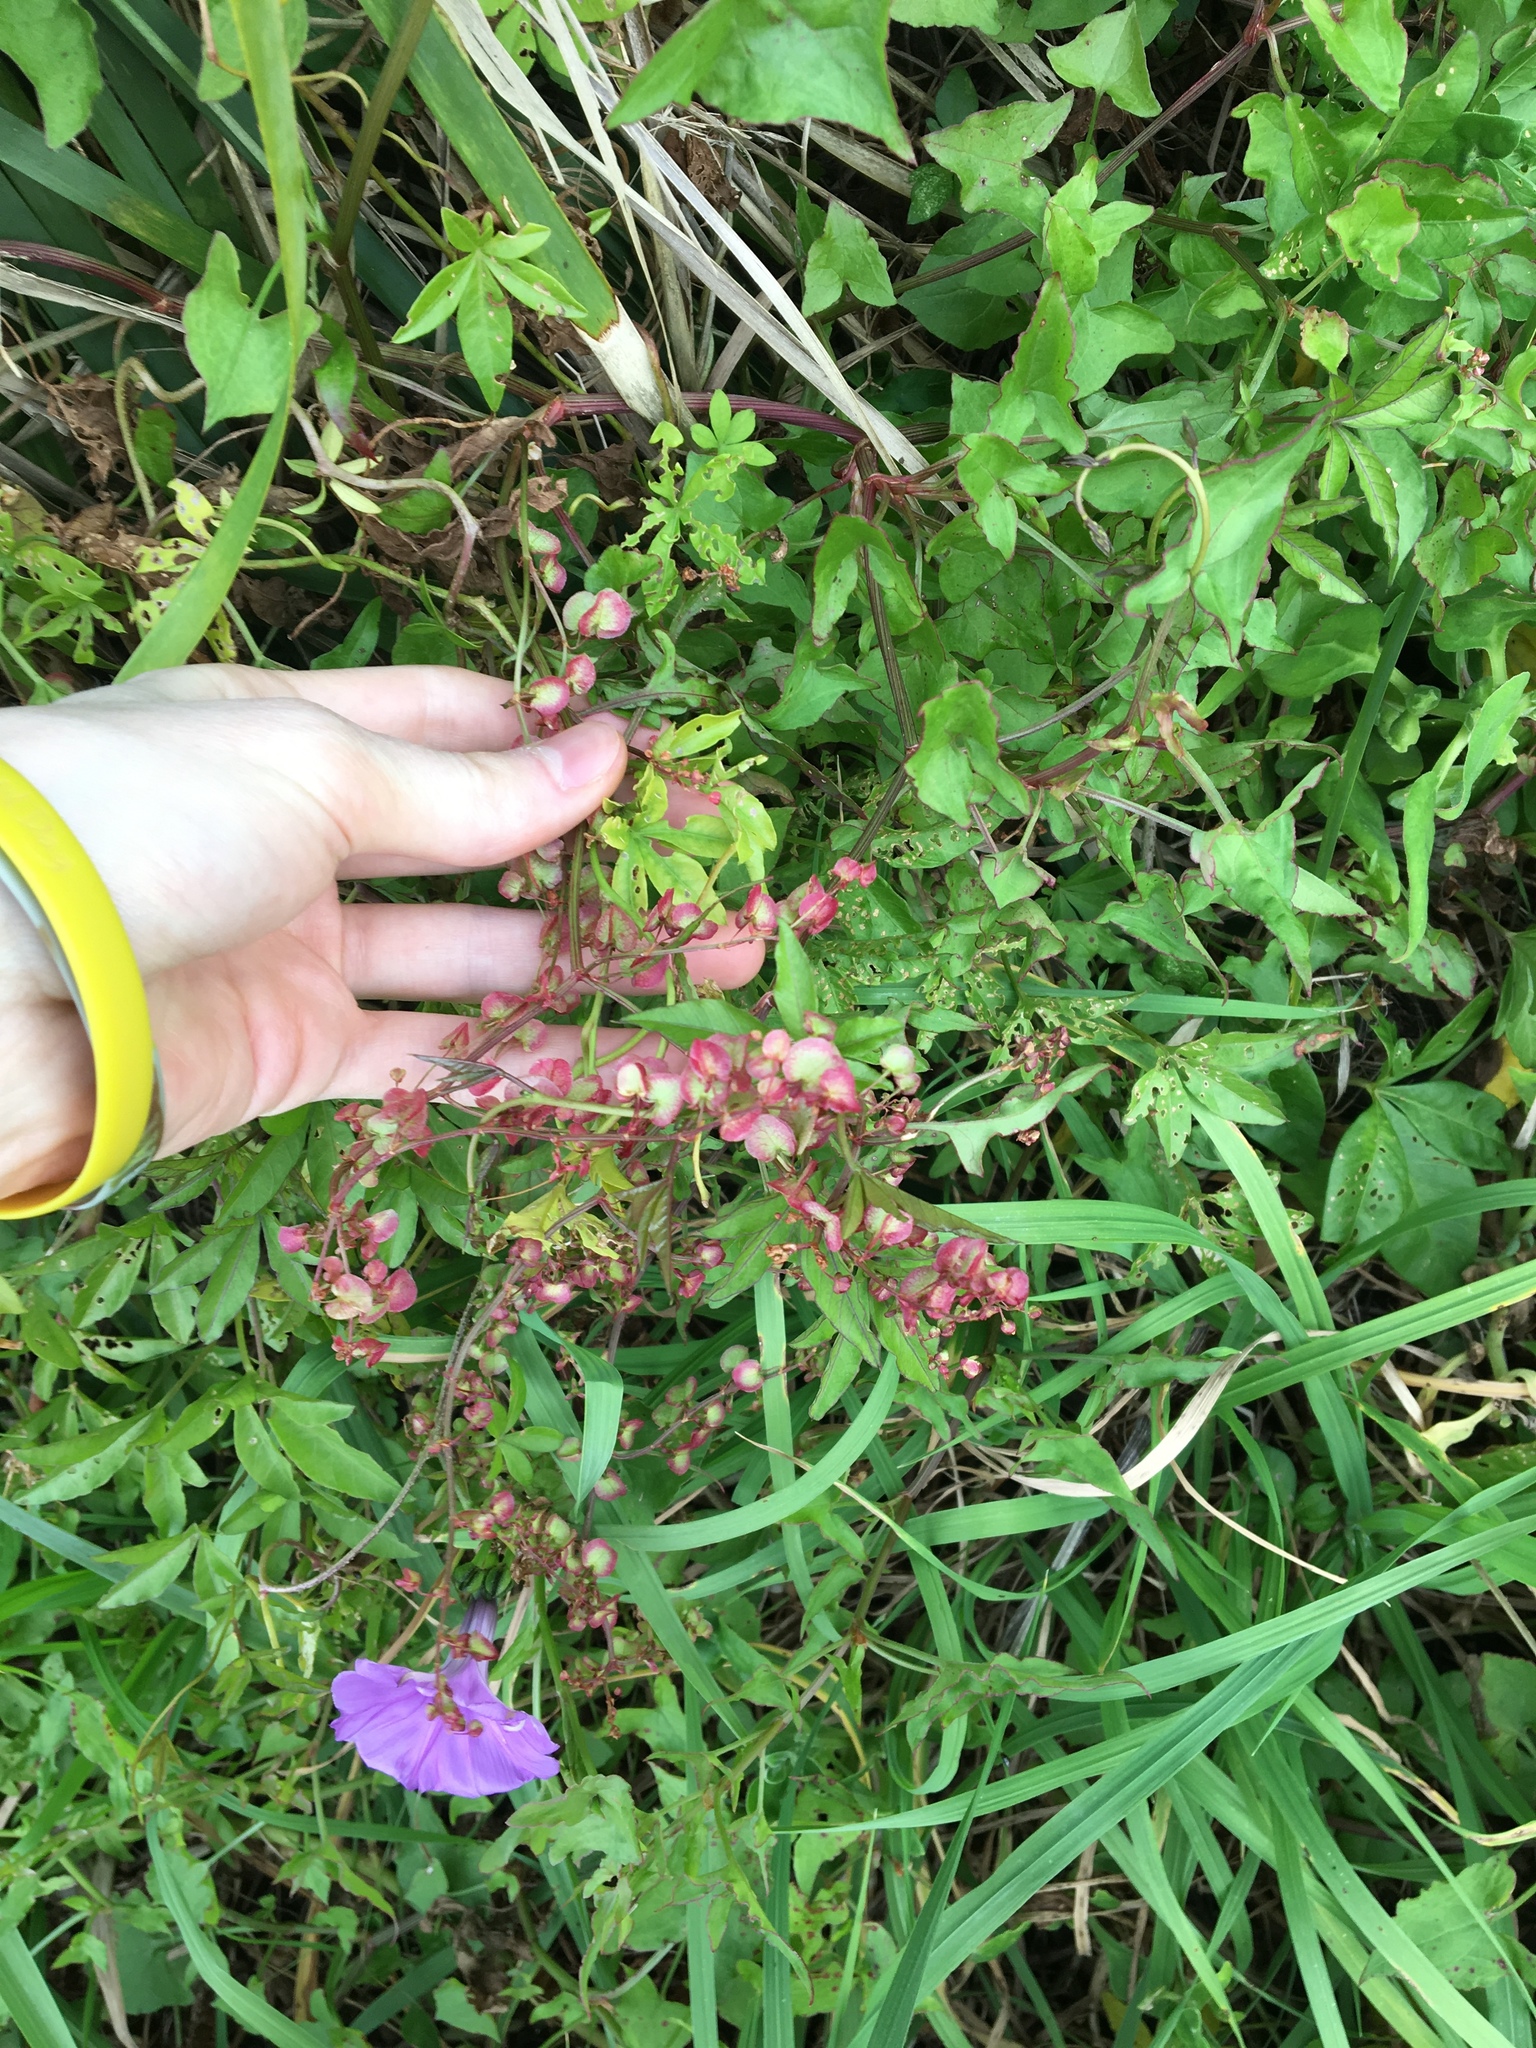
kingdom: Plantae
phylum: Tracheophyta
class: Magnoliopsida
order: Caryophyllales
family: Polygonaceae
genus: Rumex
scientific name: Rumex sagittatus
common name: Climbing dock
